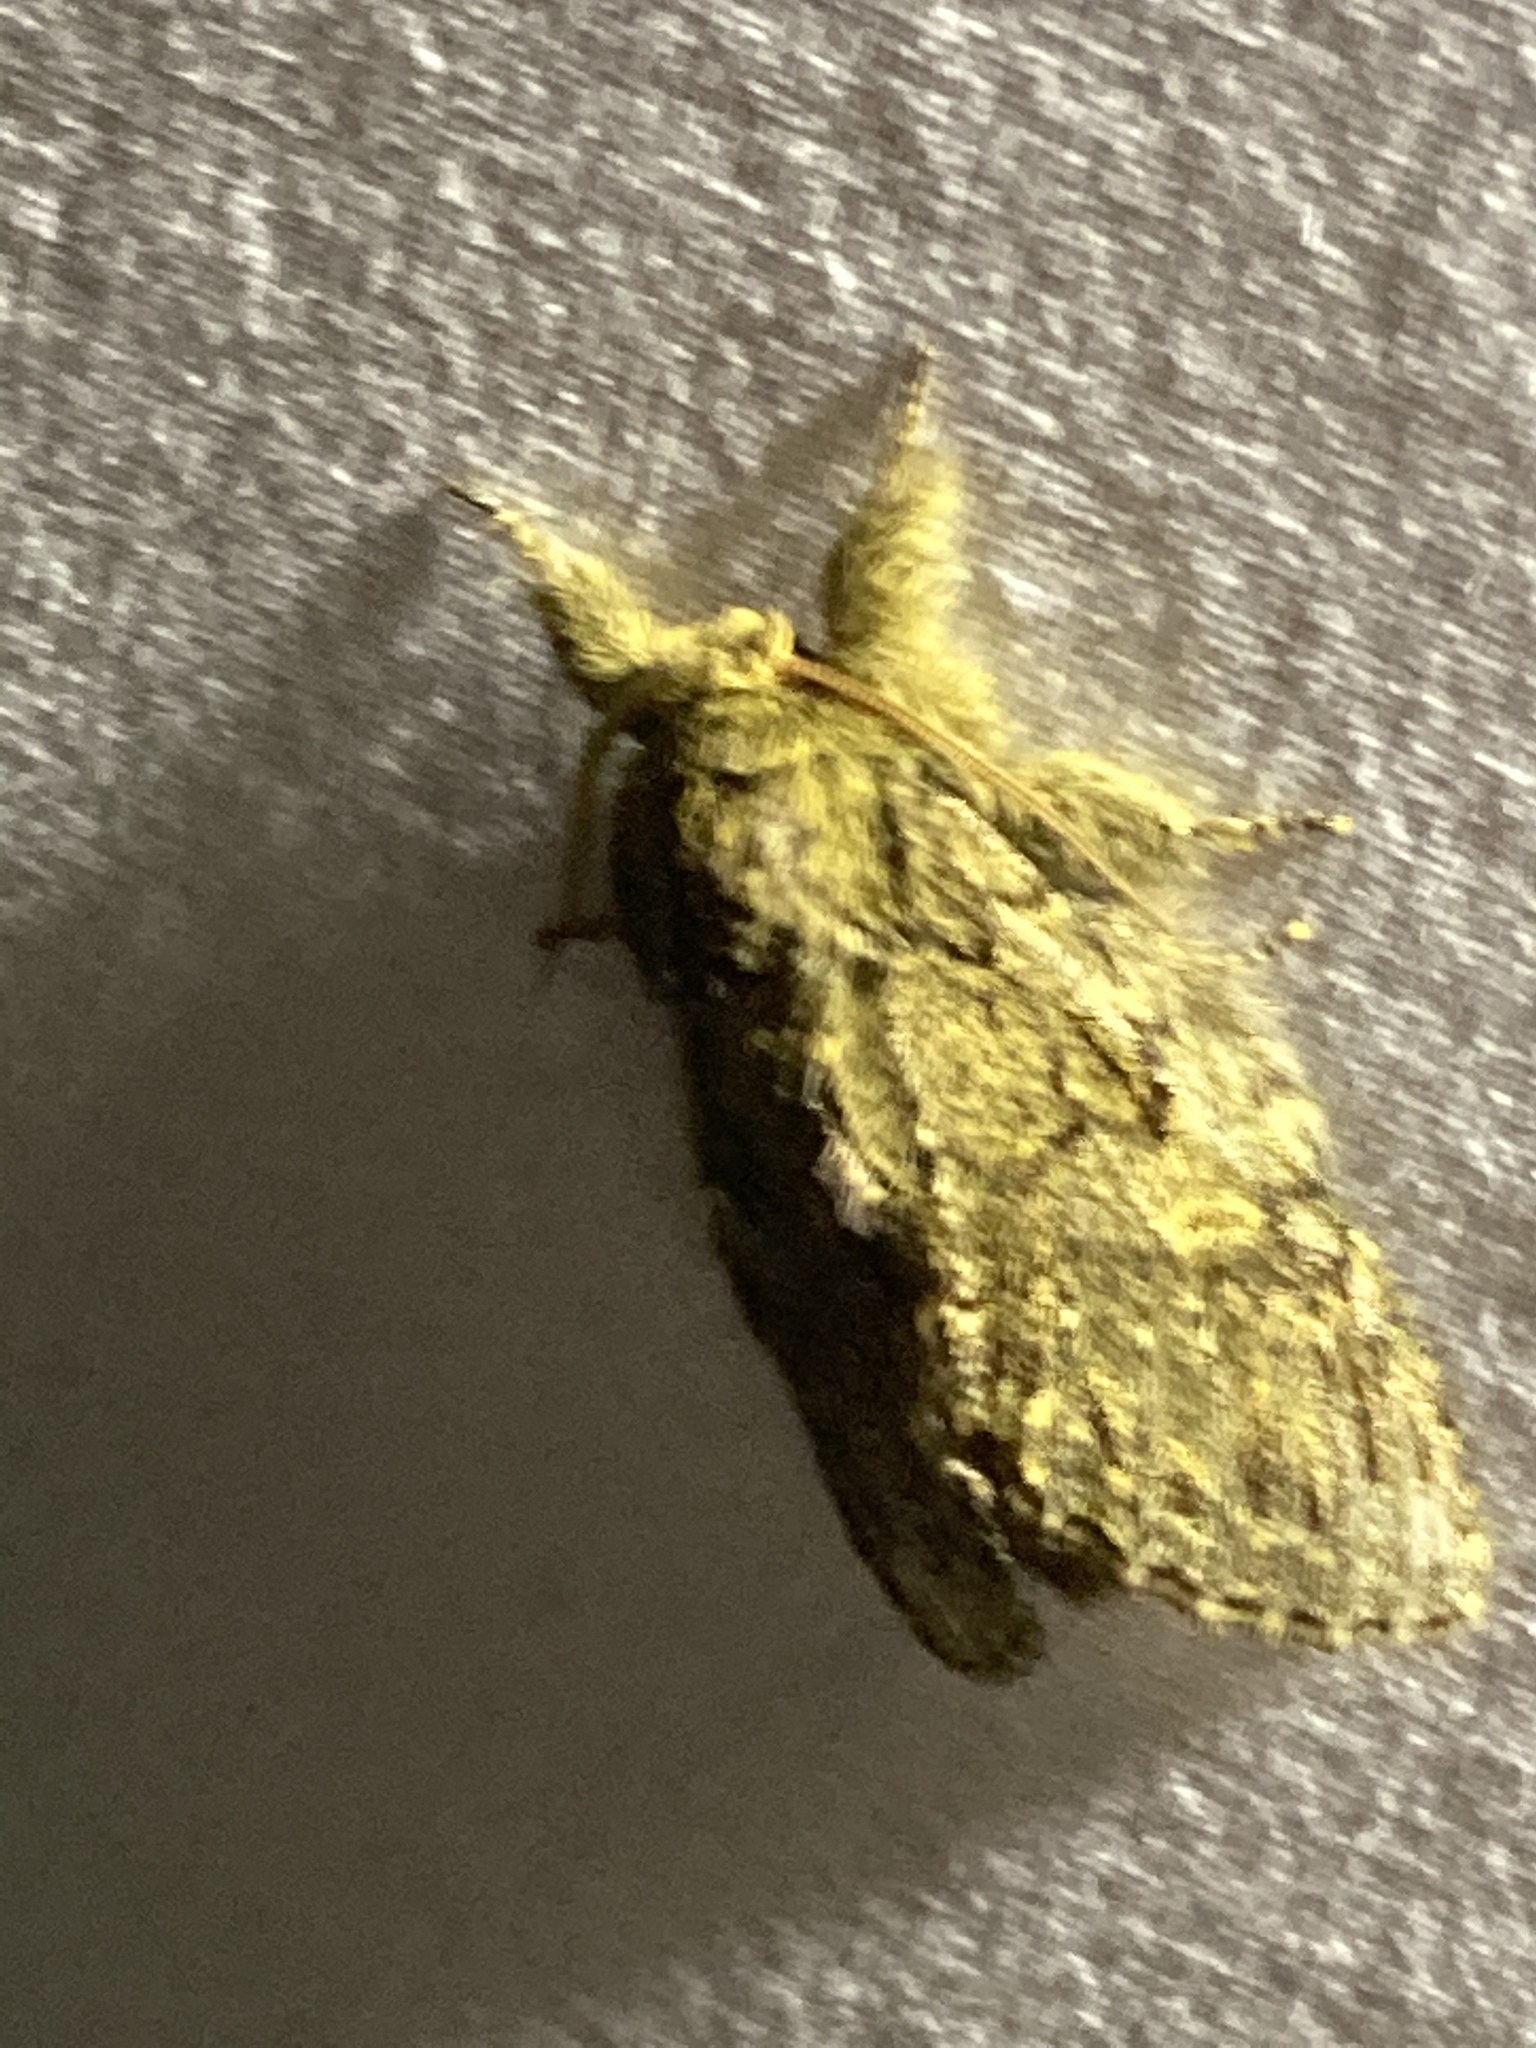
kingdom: Animalia
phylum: Arthropoda
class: Insecta
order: Lepidoptera
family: Notodontidae
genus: Peridea
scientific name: Peridea anceps
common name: Great prominent
